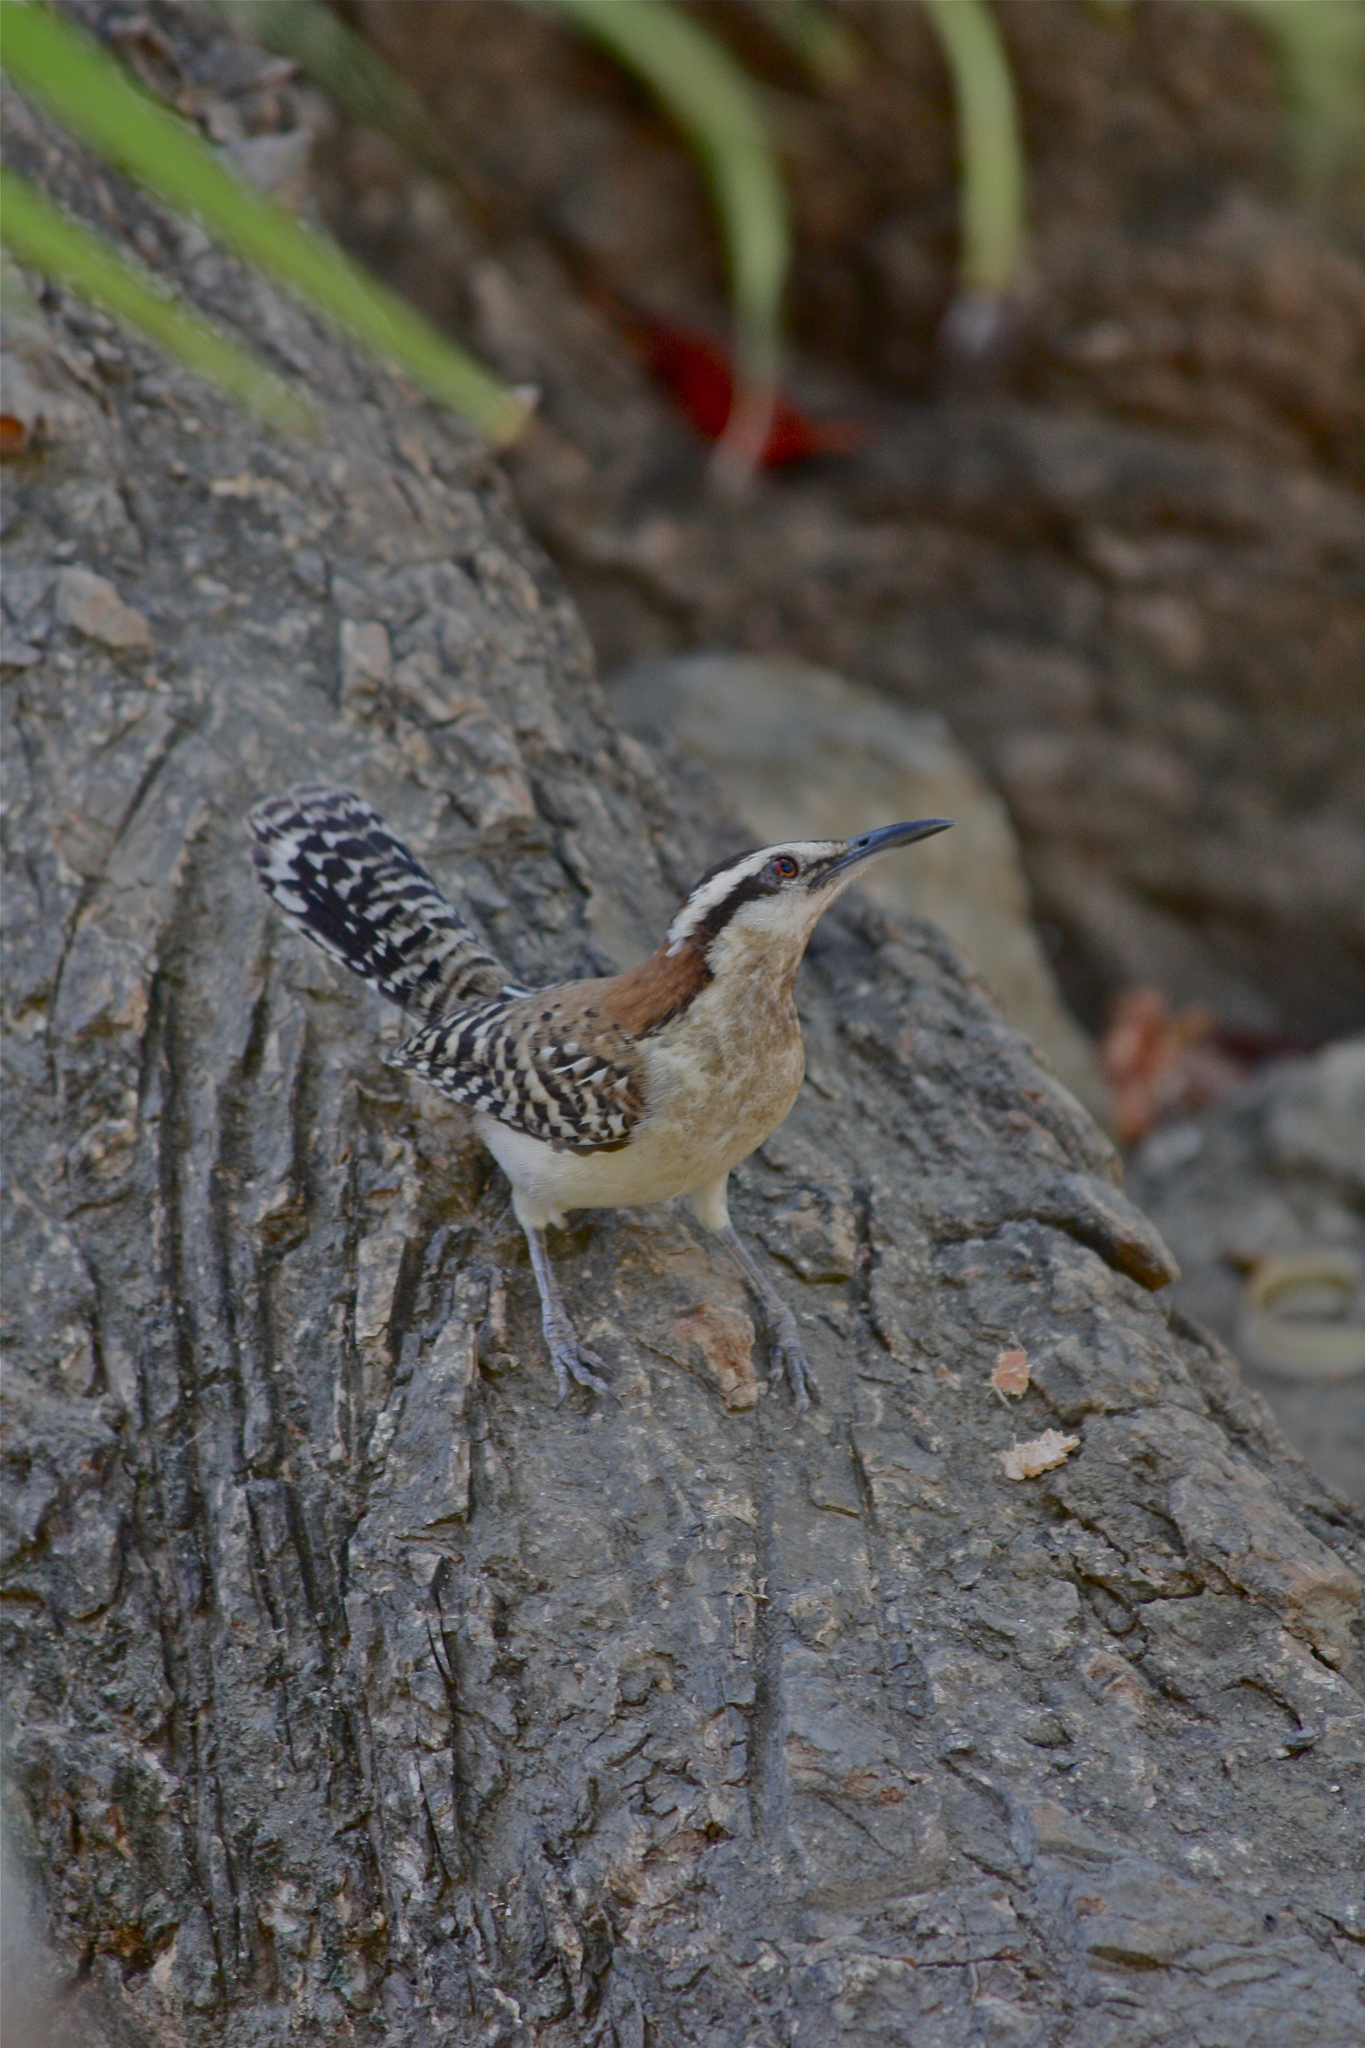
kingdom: Animalia
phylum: Chordata
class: Aves
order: Passeriformes
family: Troglodytidae
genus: Campylorhynchus
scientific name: Campylorhynchus rufinucha
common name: Rufous-naped wren
